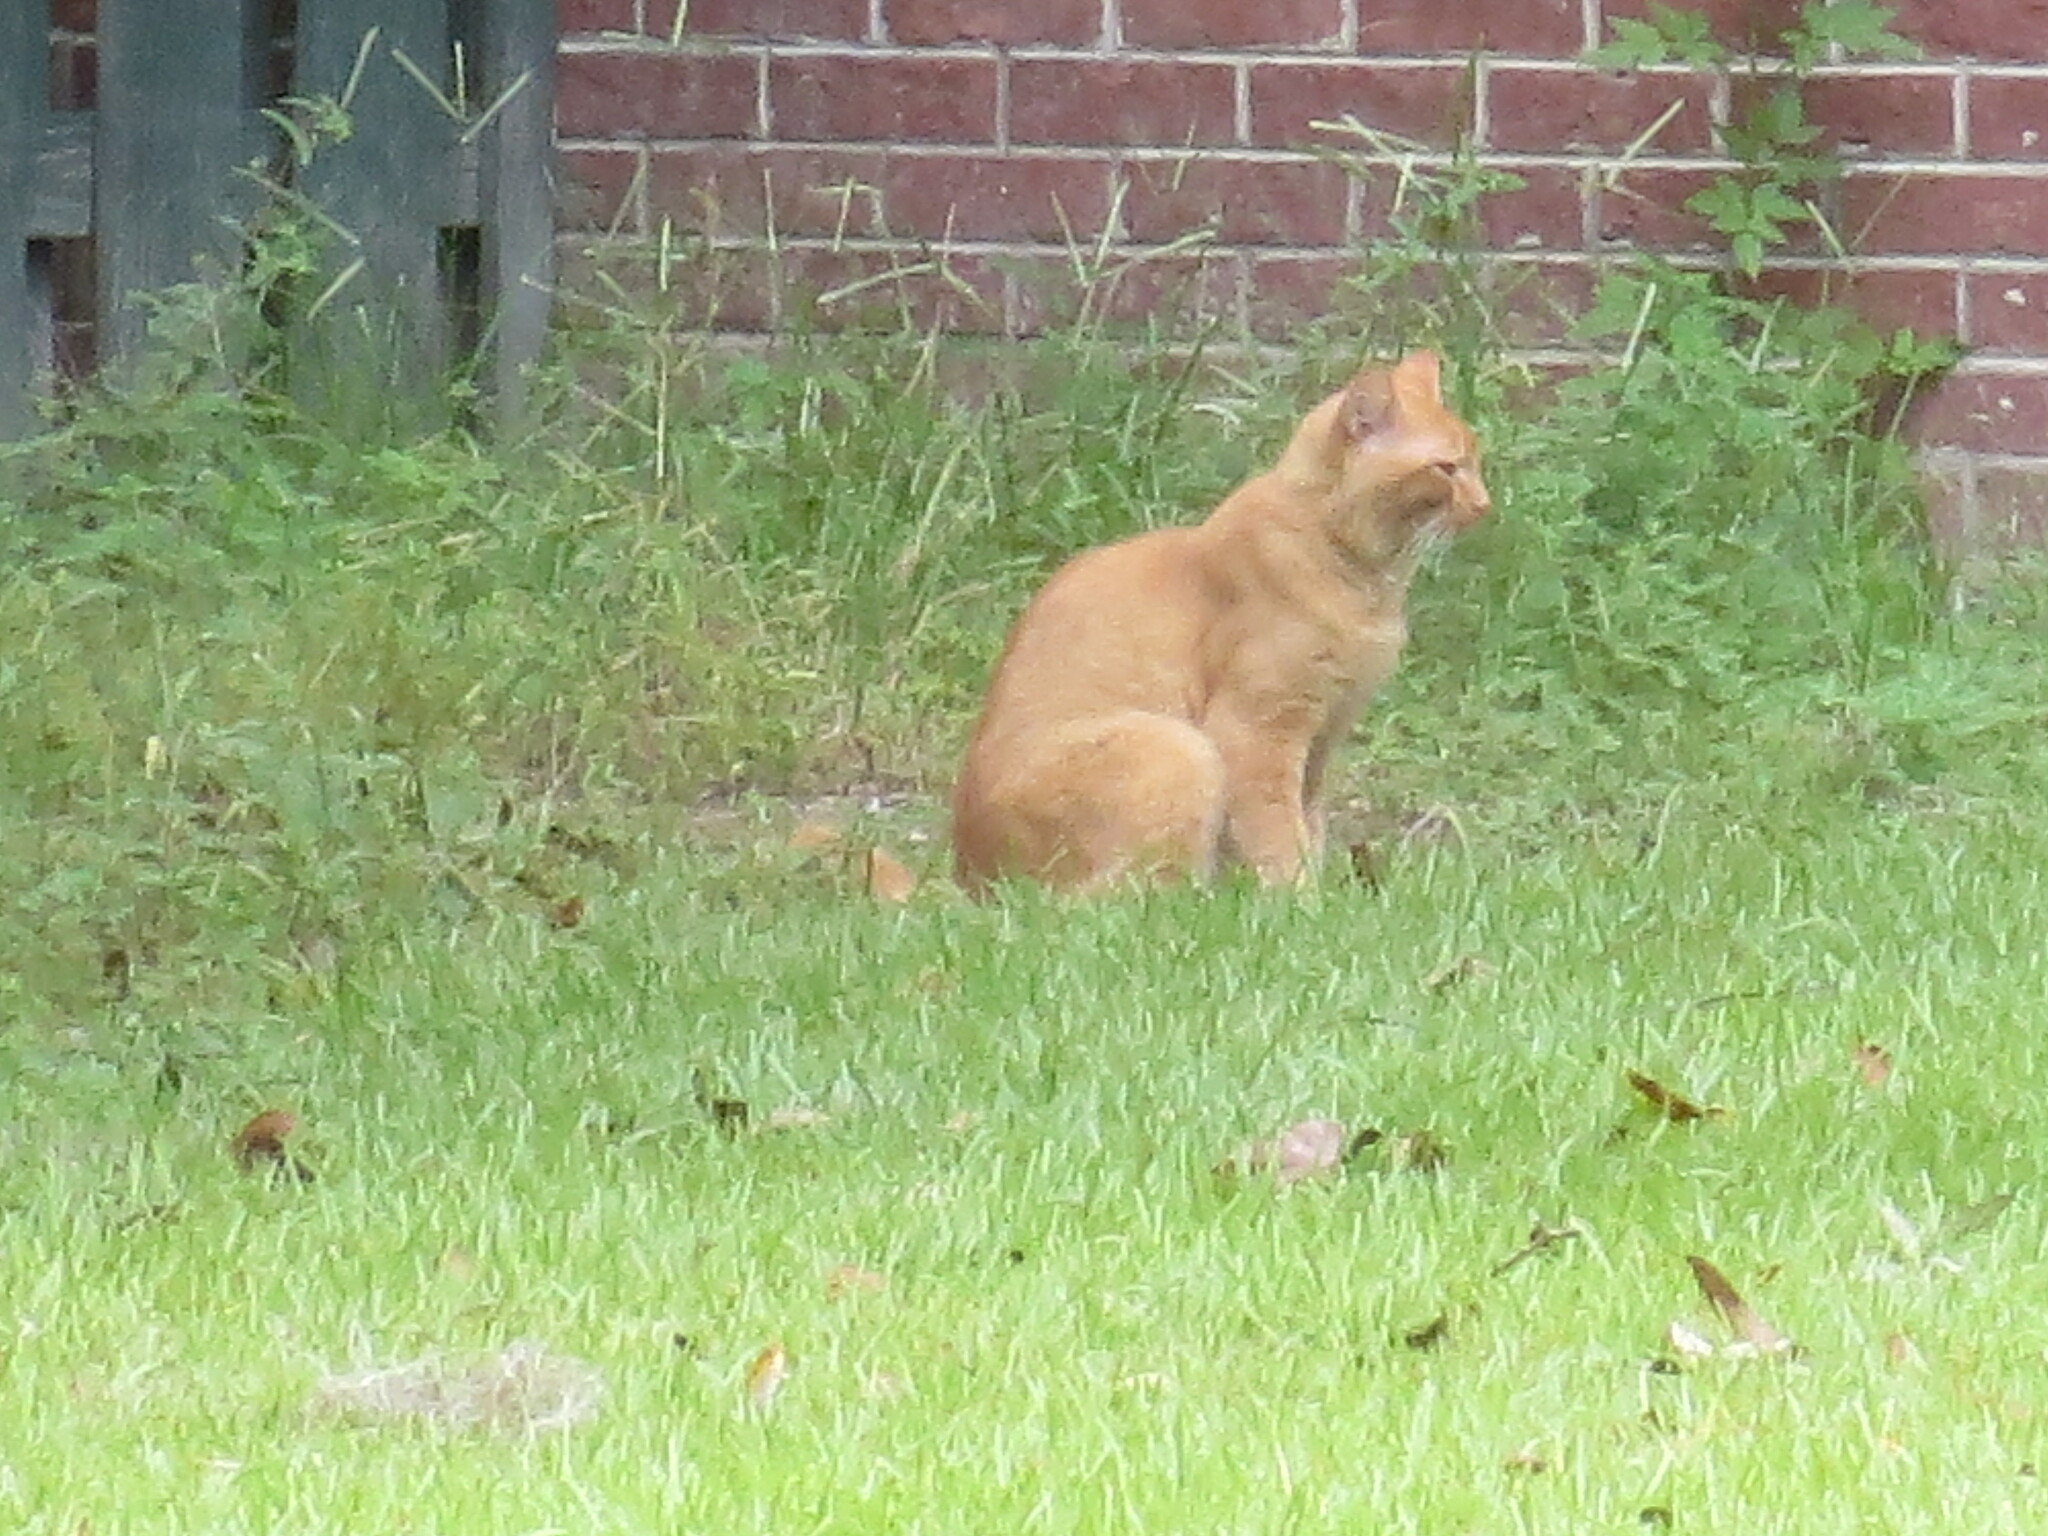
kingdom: Animalia
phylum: Chordata
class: Mammalia
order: Carnivora
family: Felidae
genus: Felis
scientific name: Felis catus
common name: Domestic cat
